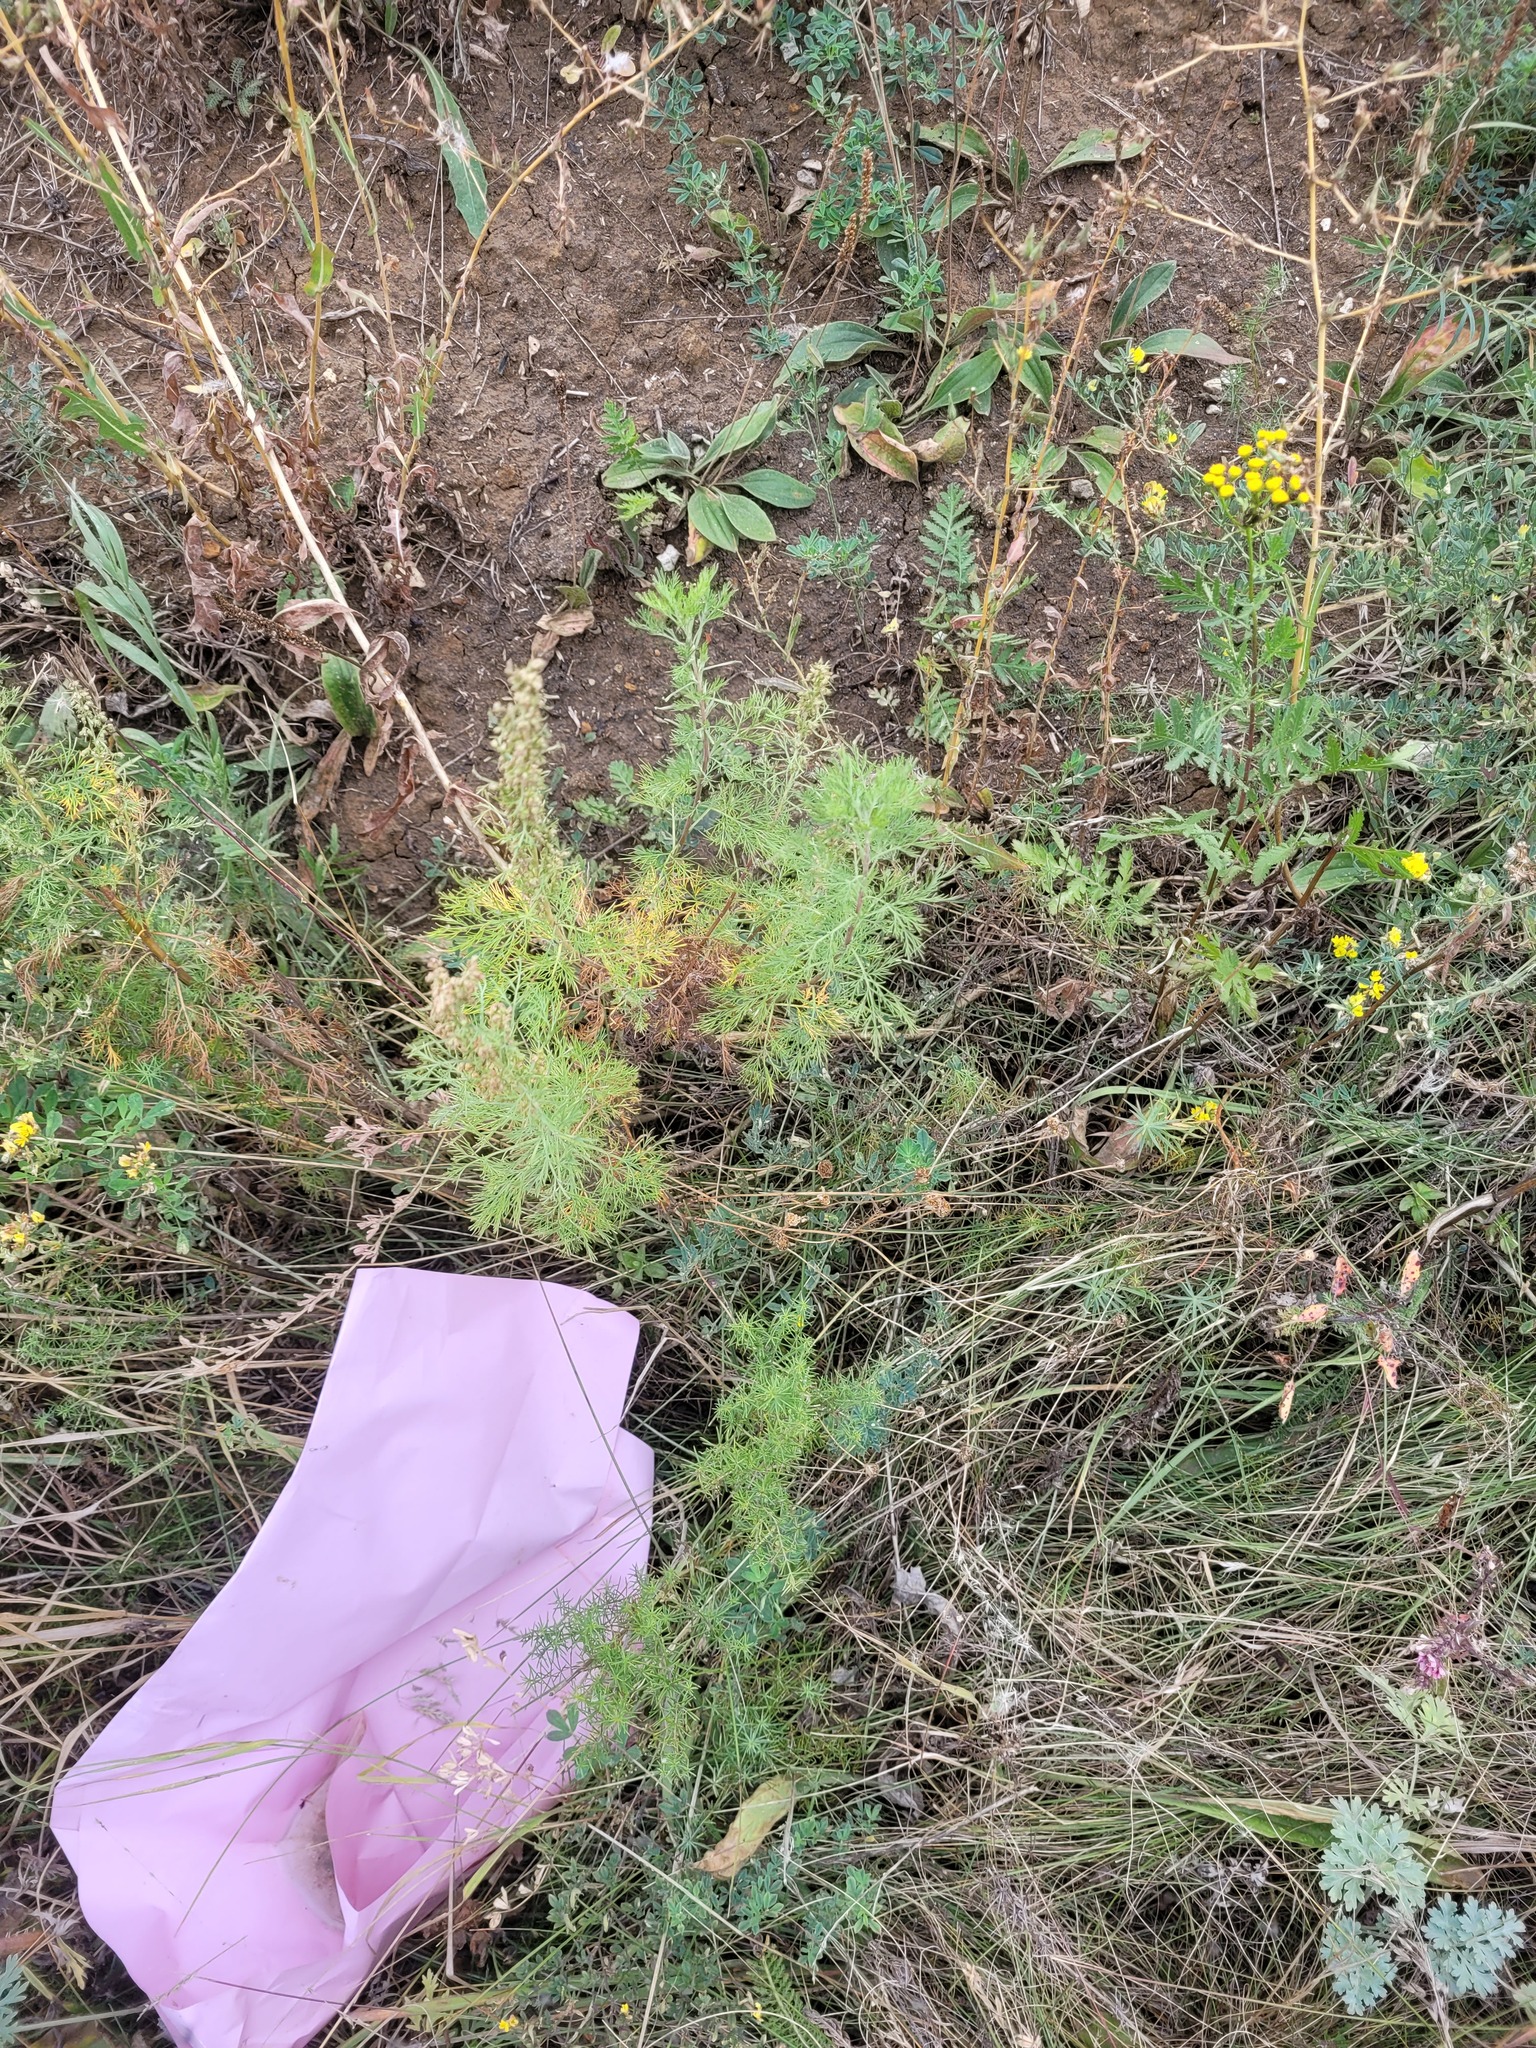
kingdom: Plantae
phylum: Tracheophyta
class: Magnoliopsida
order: Asterales
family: Asteraceae
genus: Artemisia
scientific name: Artemisia abrotanum
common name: Southernwood
